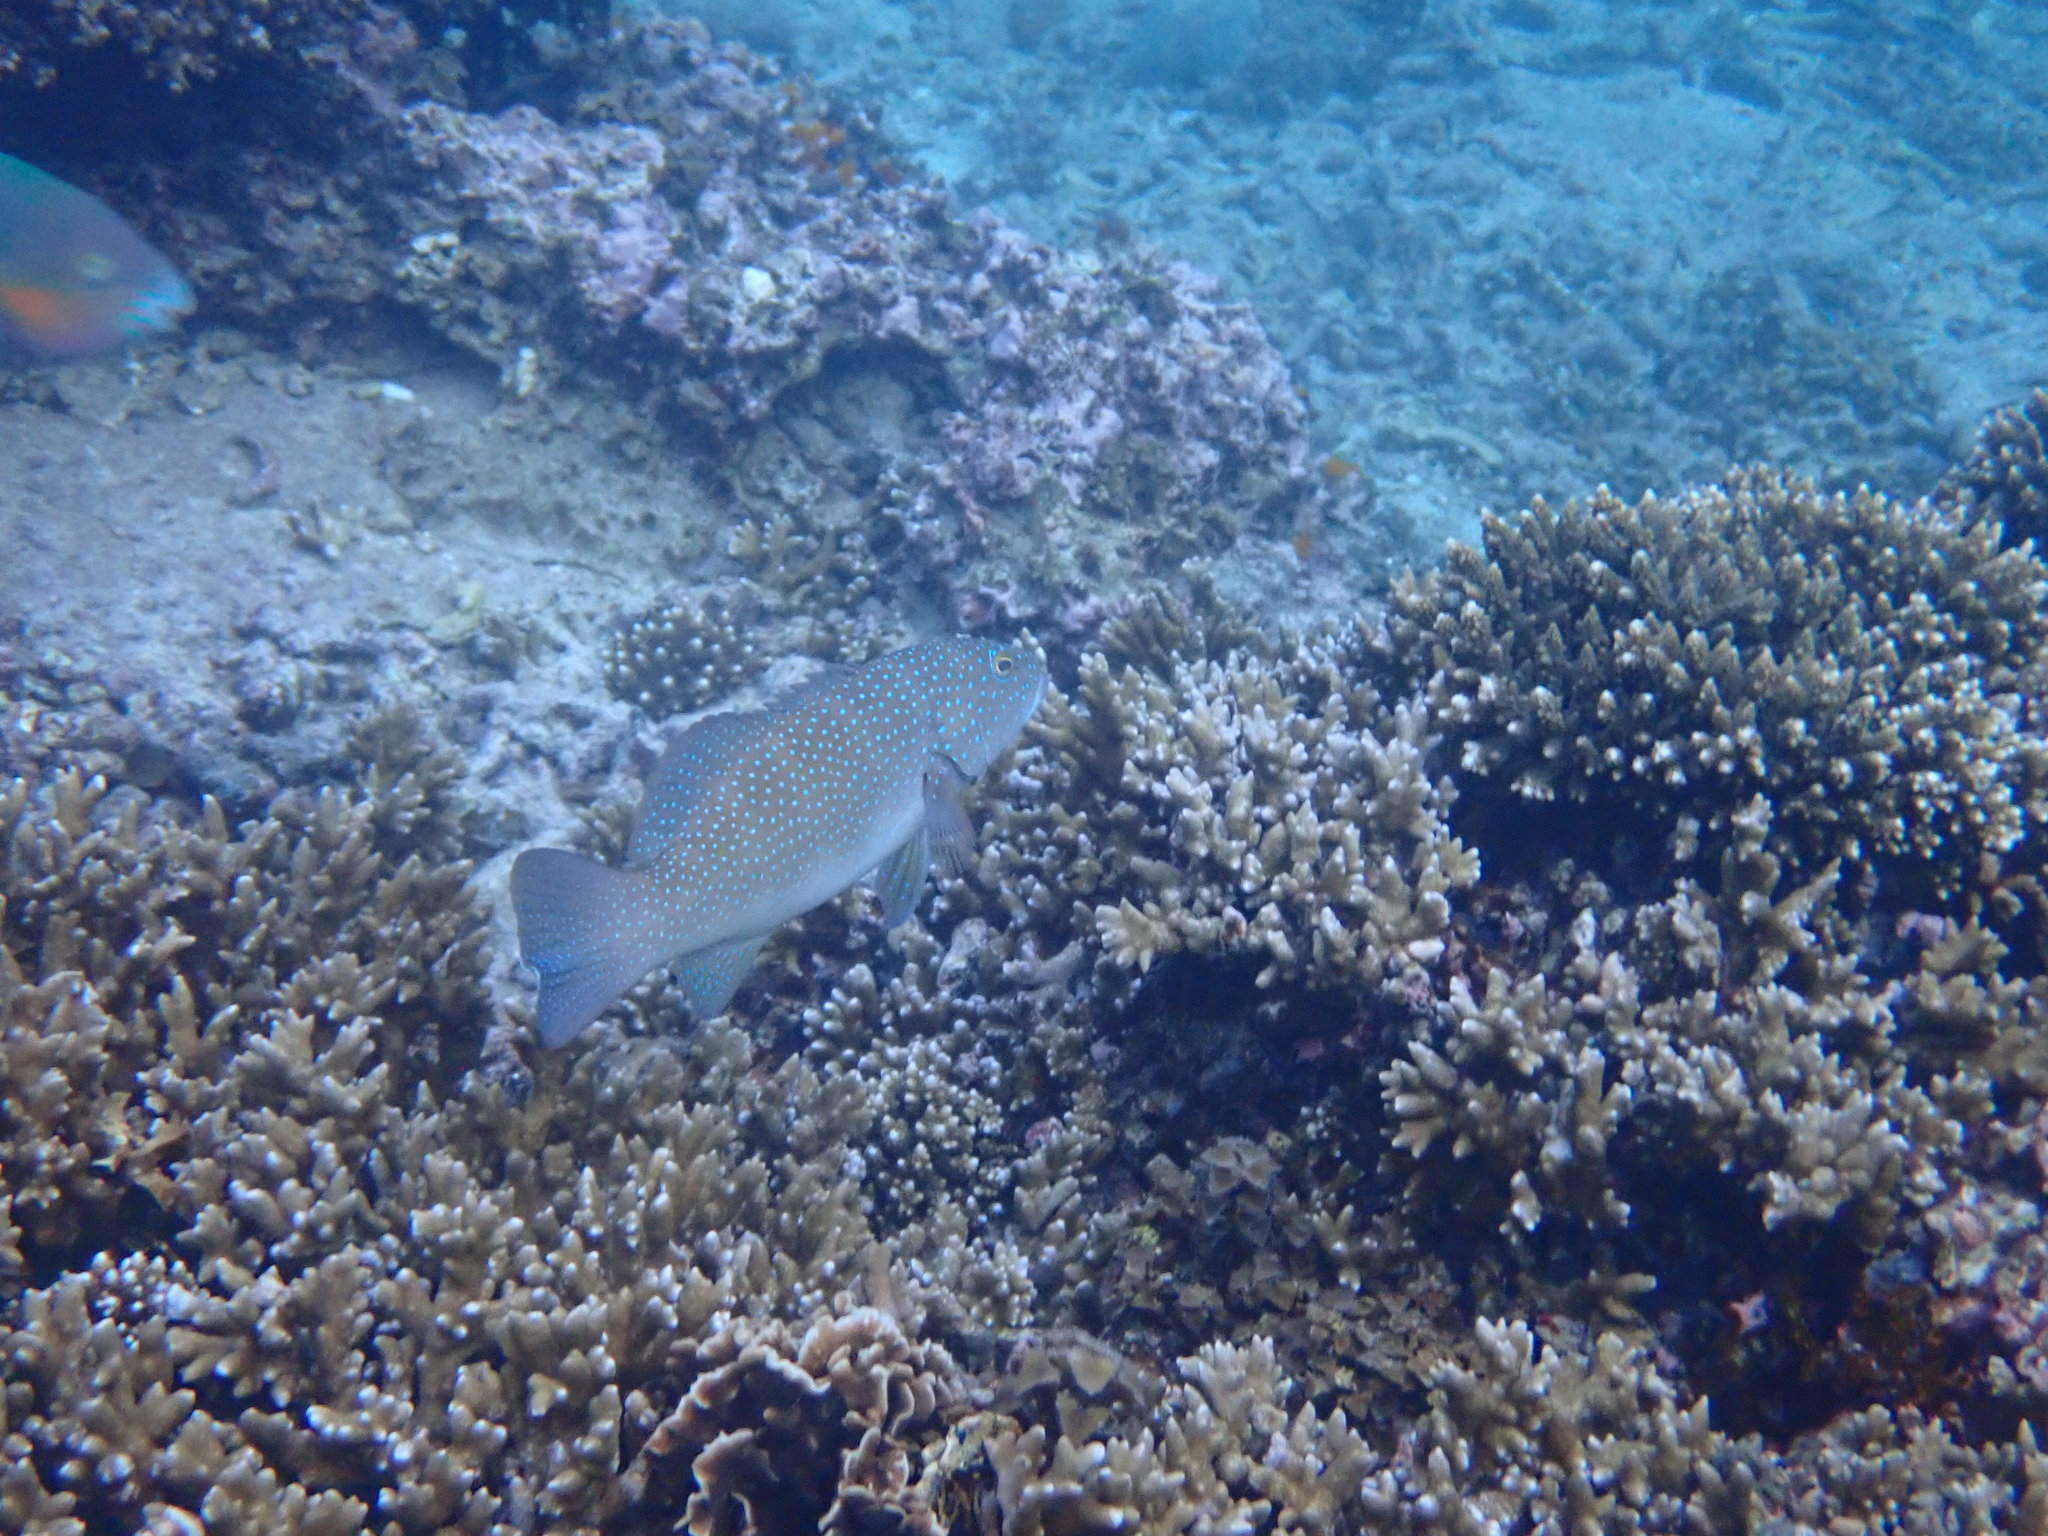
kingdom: Animalia
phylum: Chordata
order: Perciformes
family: Serranidae
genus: Plectropomus
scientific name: Plectropomus leopardus
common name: Coral trout
